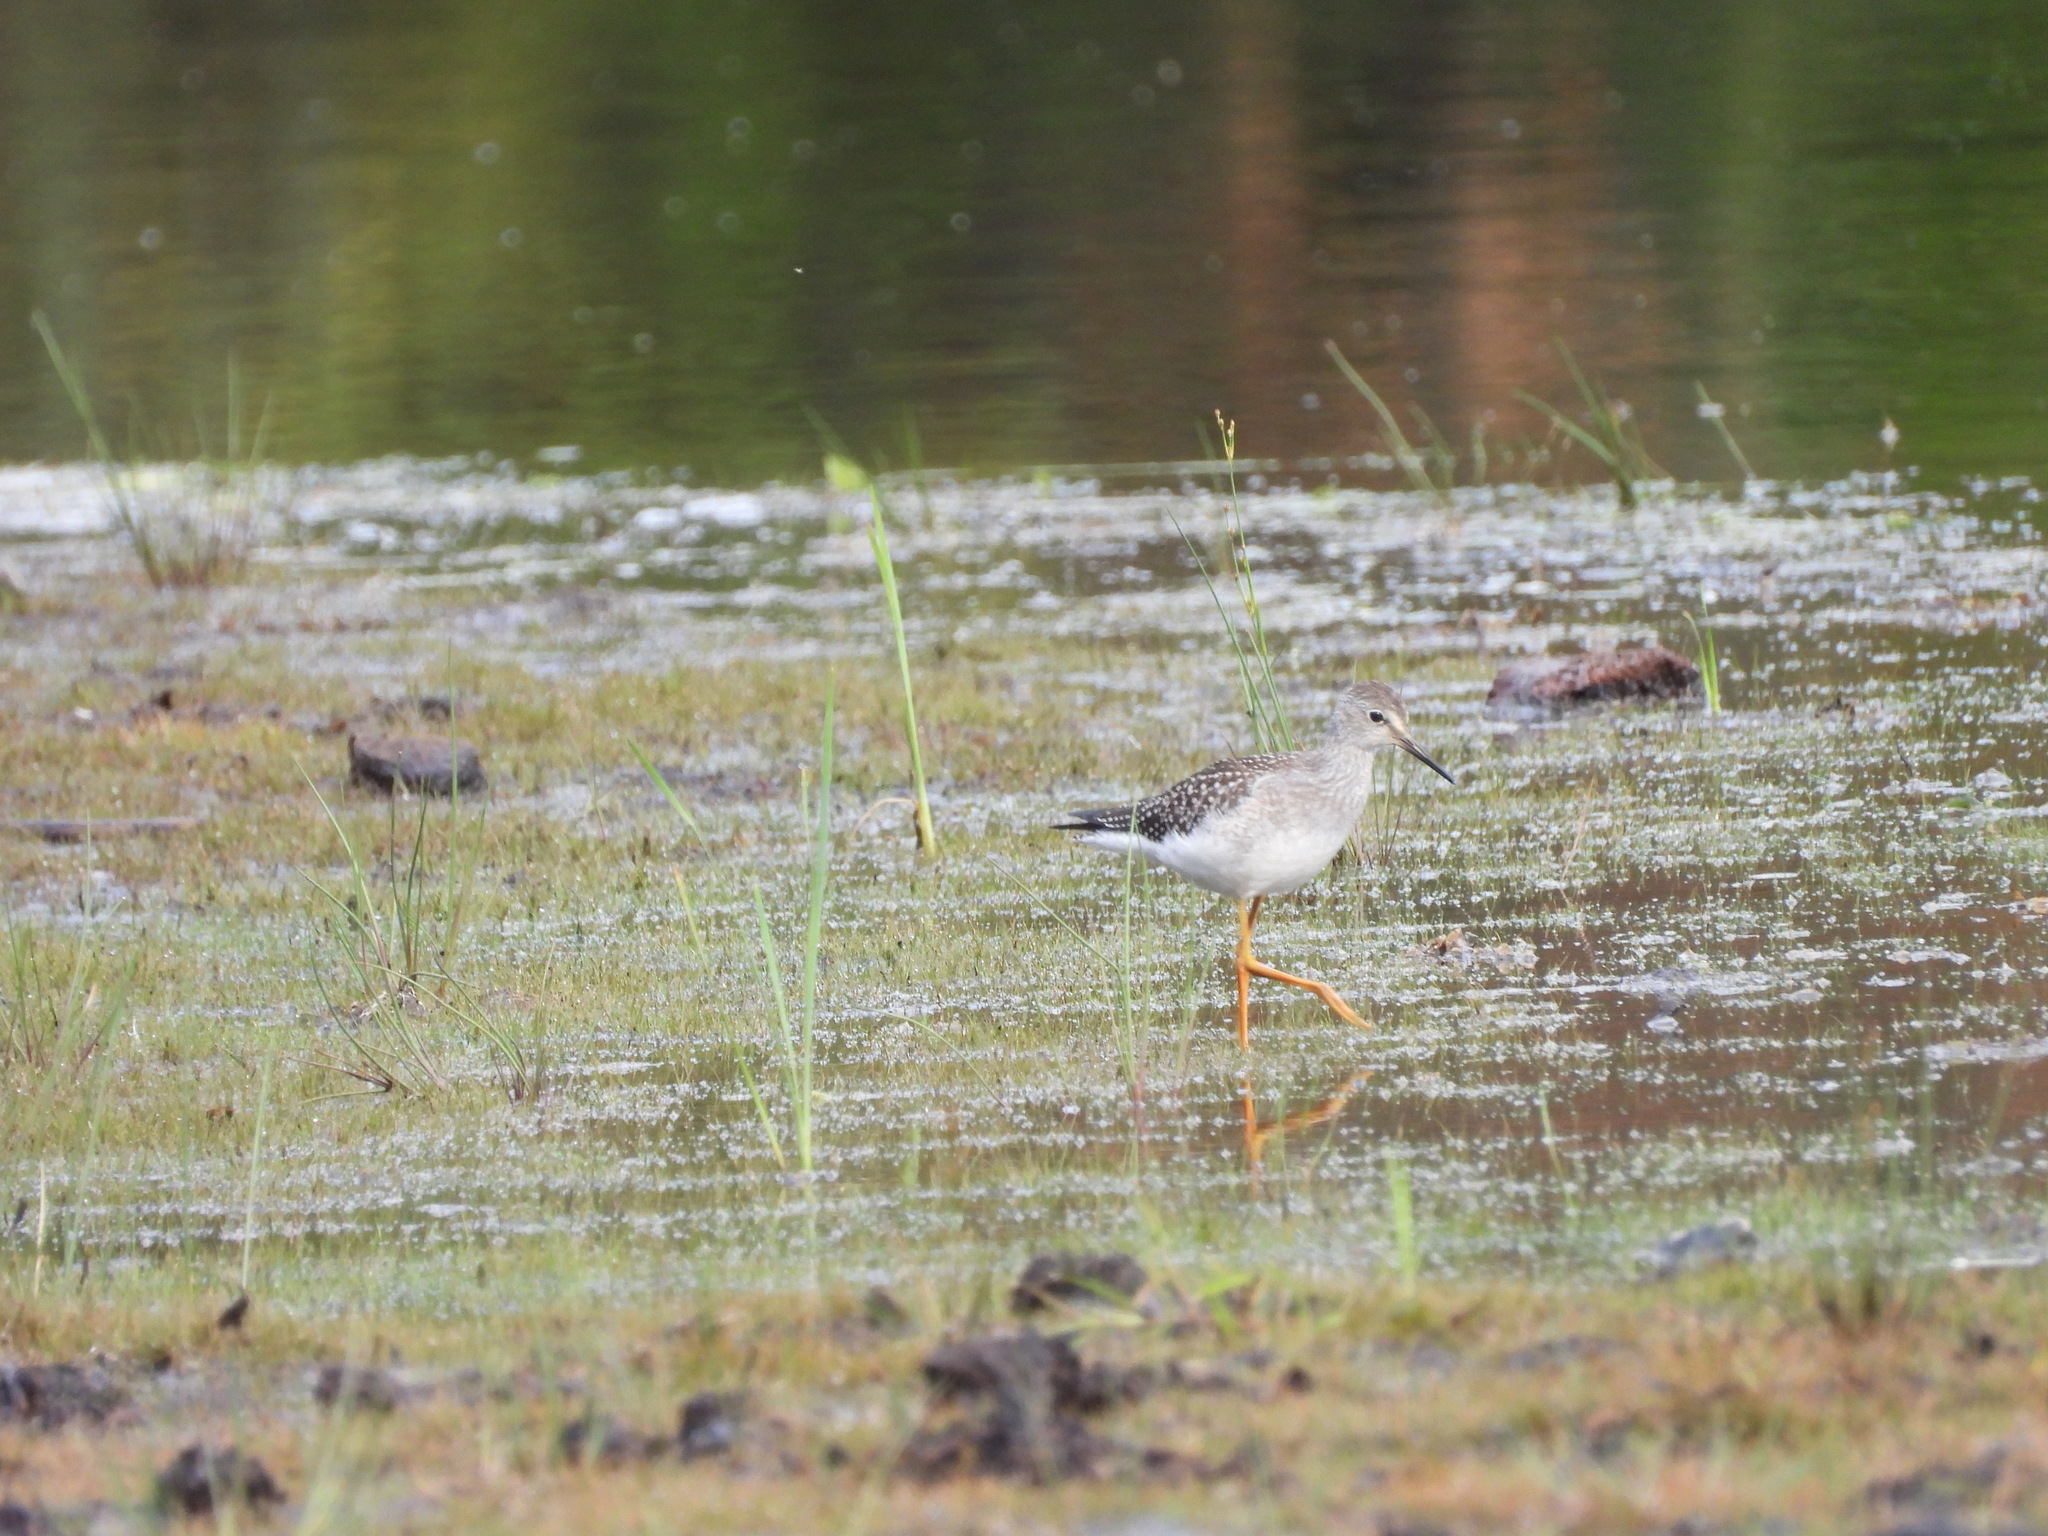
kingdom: Animalia
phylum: Chordata
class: Aves
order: Charadriiformes
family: Scolopacidae
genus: Tringa
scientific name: Tringa flavipes
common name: Lesser yellowlegs
